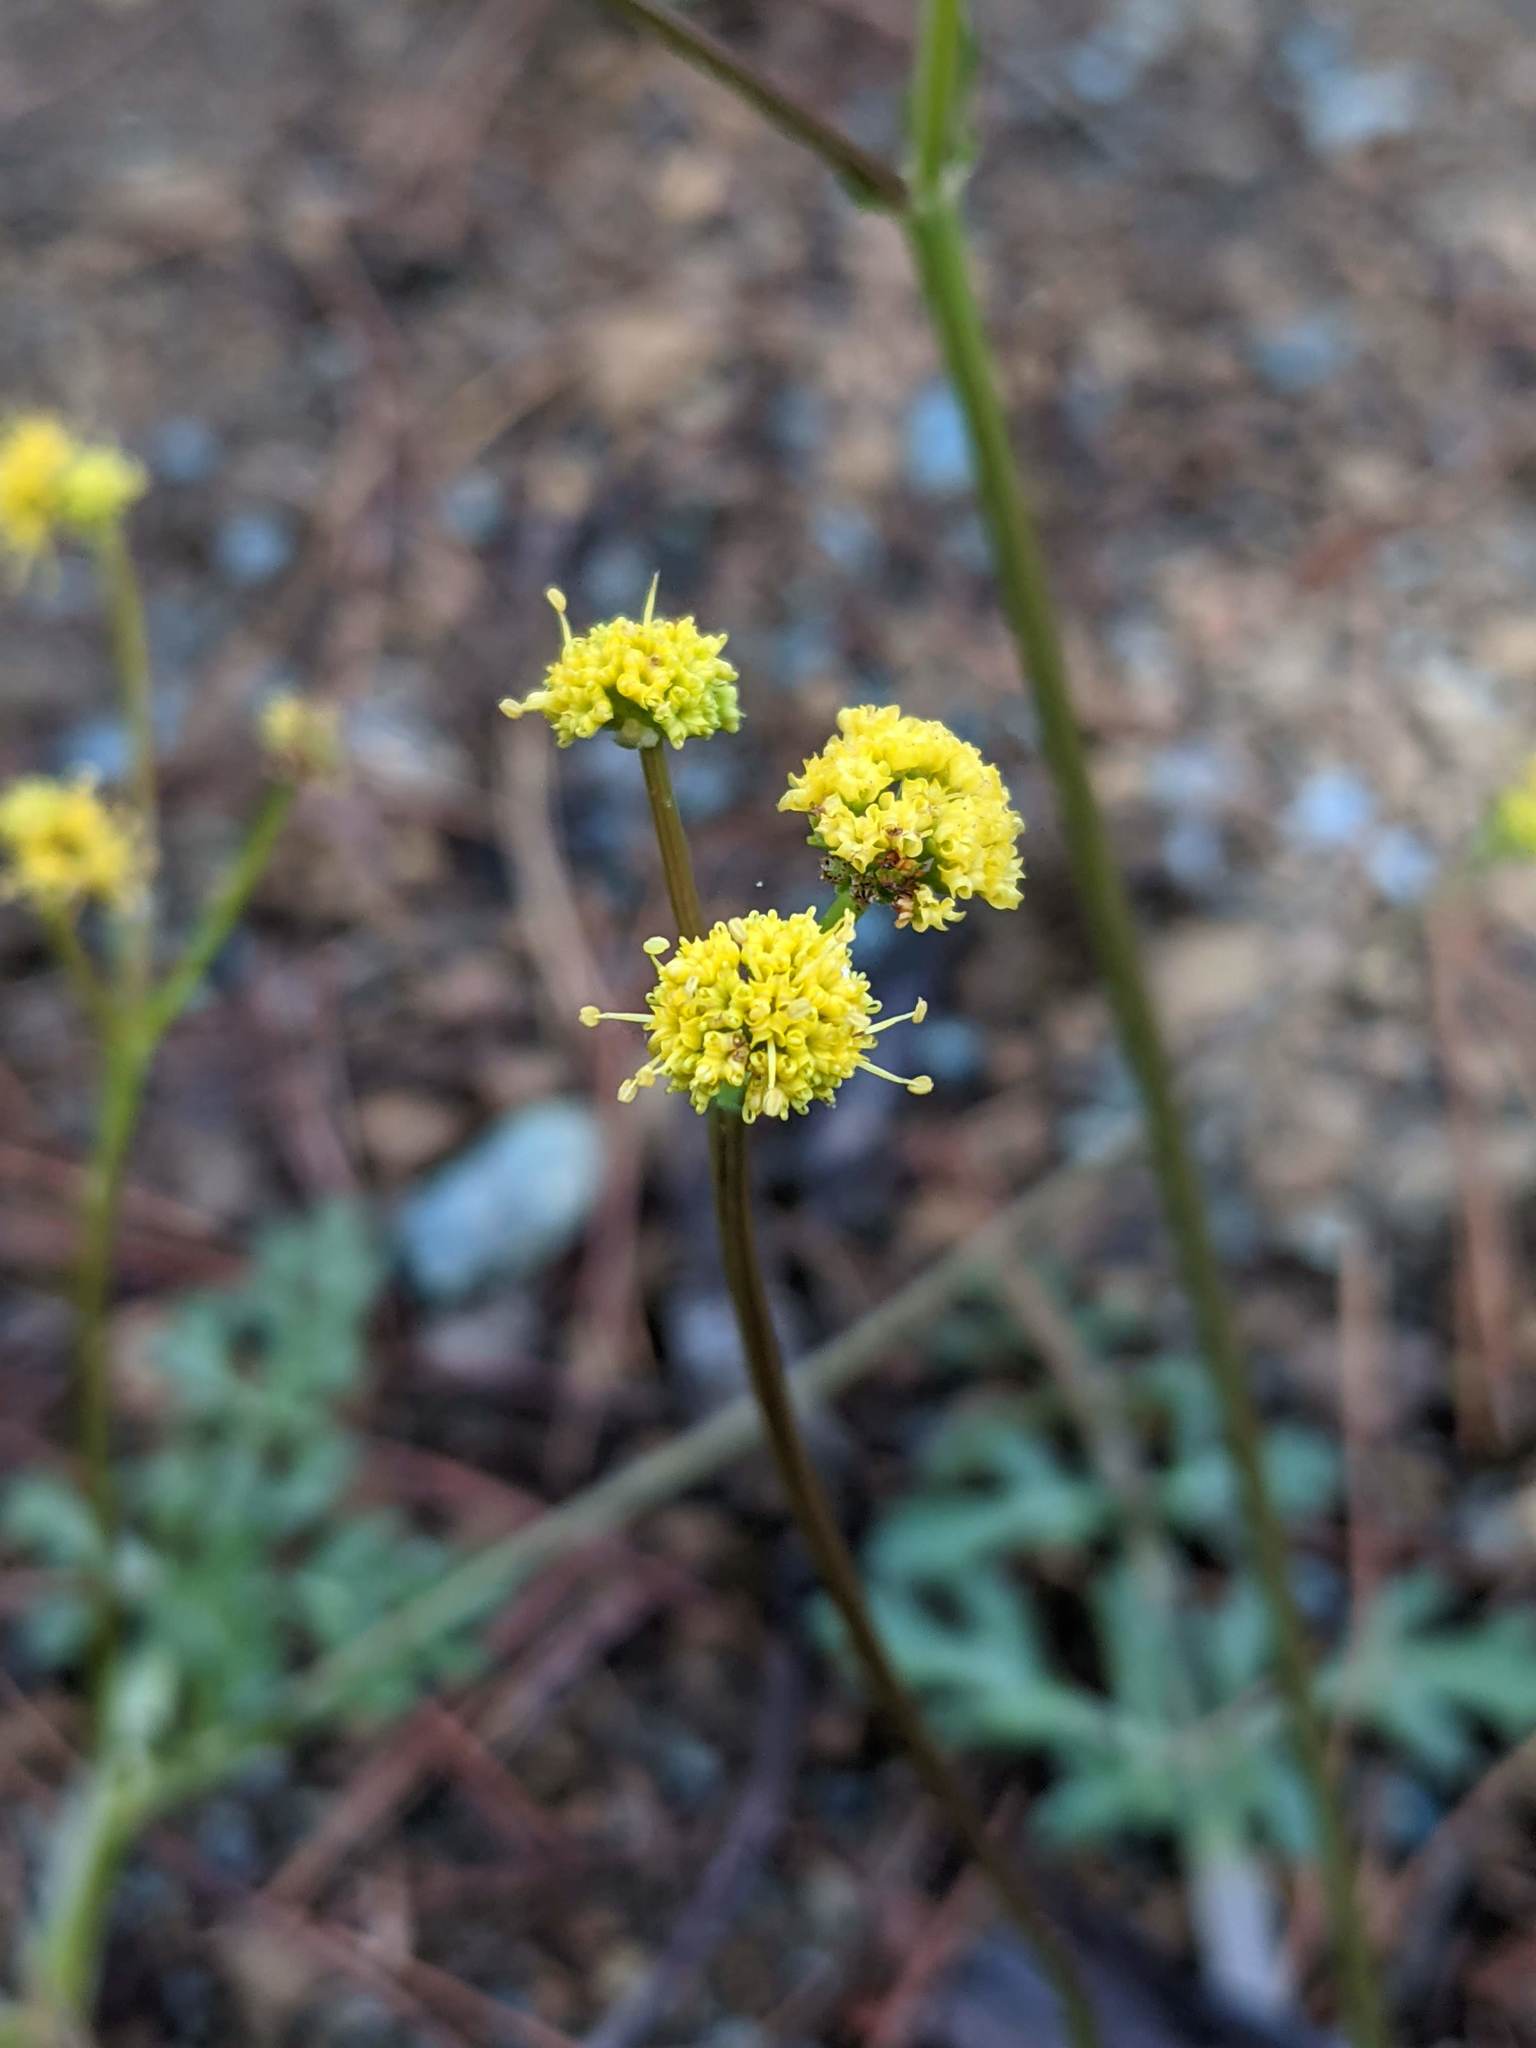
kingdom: Plantae
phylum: Tracheophyta
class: Magnoliopsida
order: Apiales
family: Apiaceae
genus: Sanicula
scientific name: Sanicula peckiana
